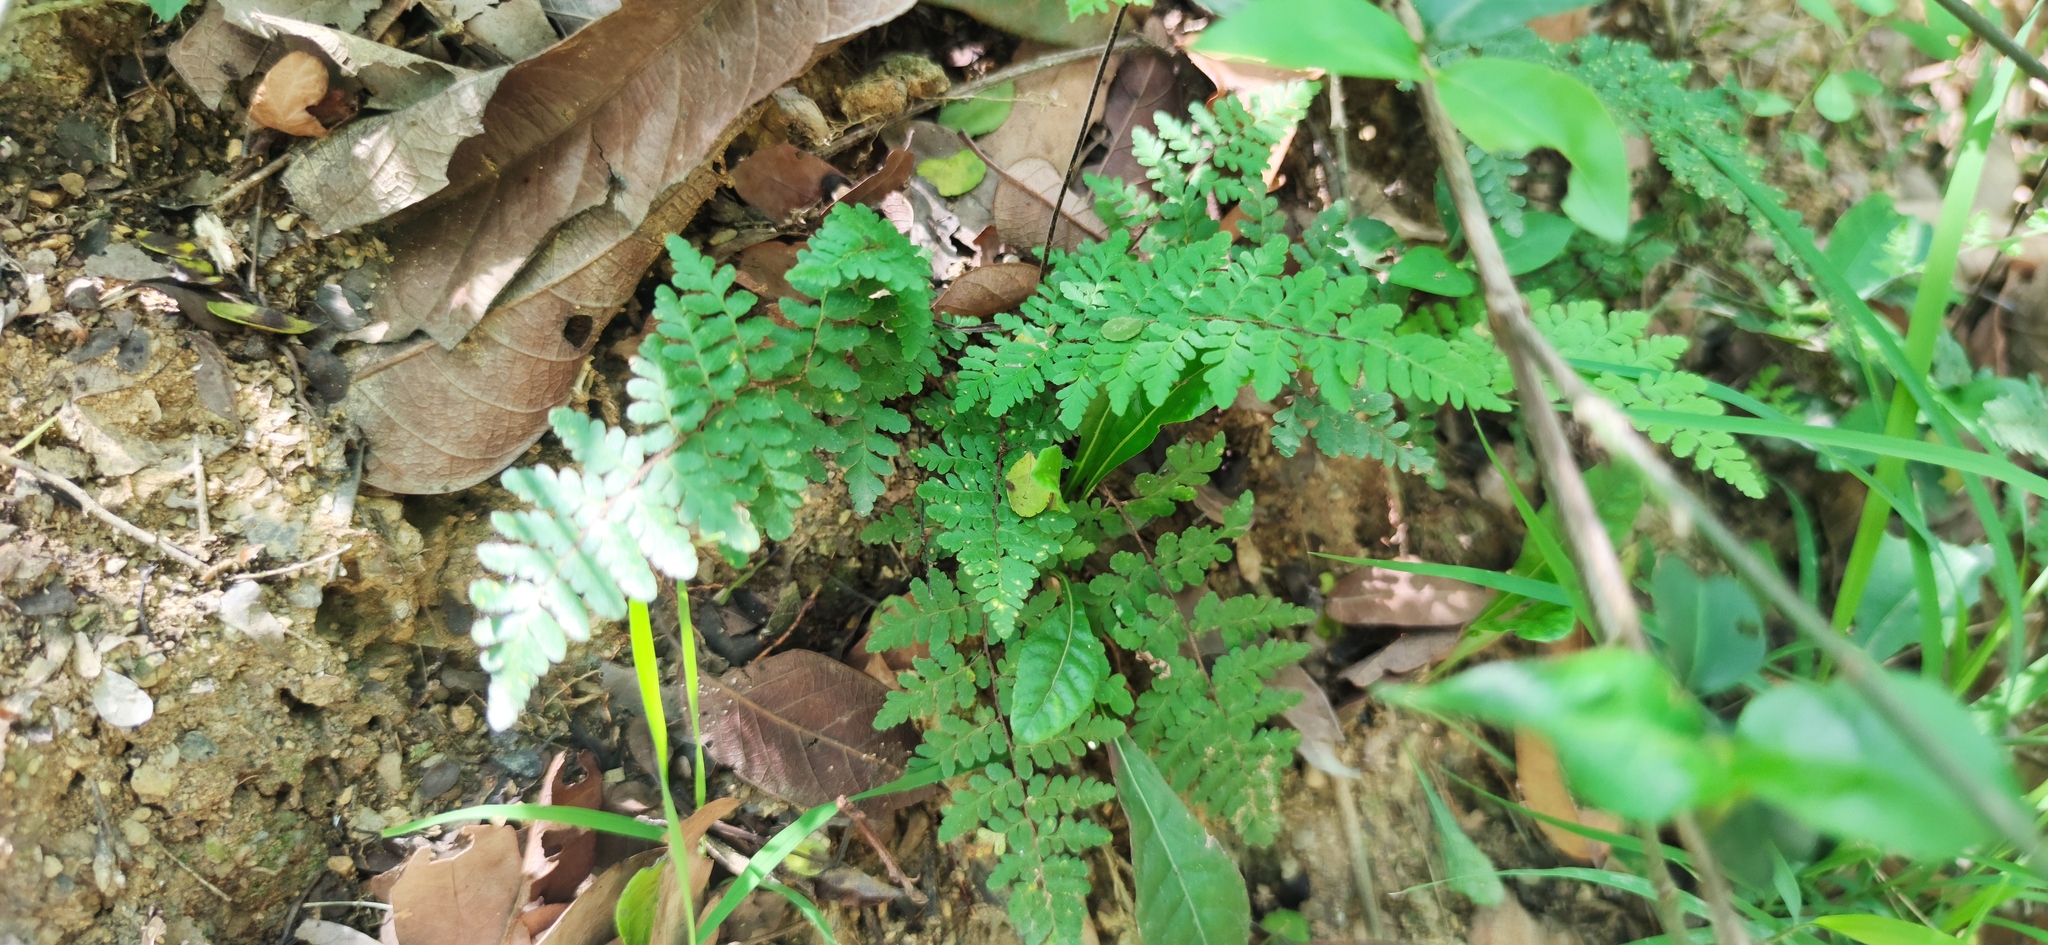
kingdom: Plantae
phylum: Tracheophyta
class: Polypodiopsida
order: Polypodiales
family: Pteridaceae
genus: Myriopteris
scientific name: Myriopteris alabamensis
